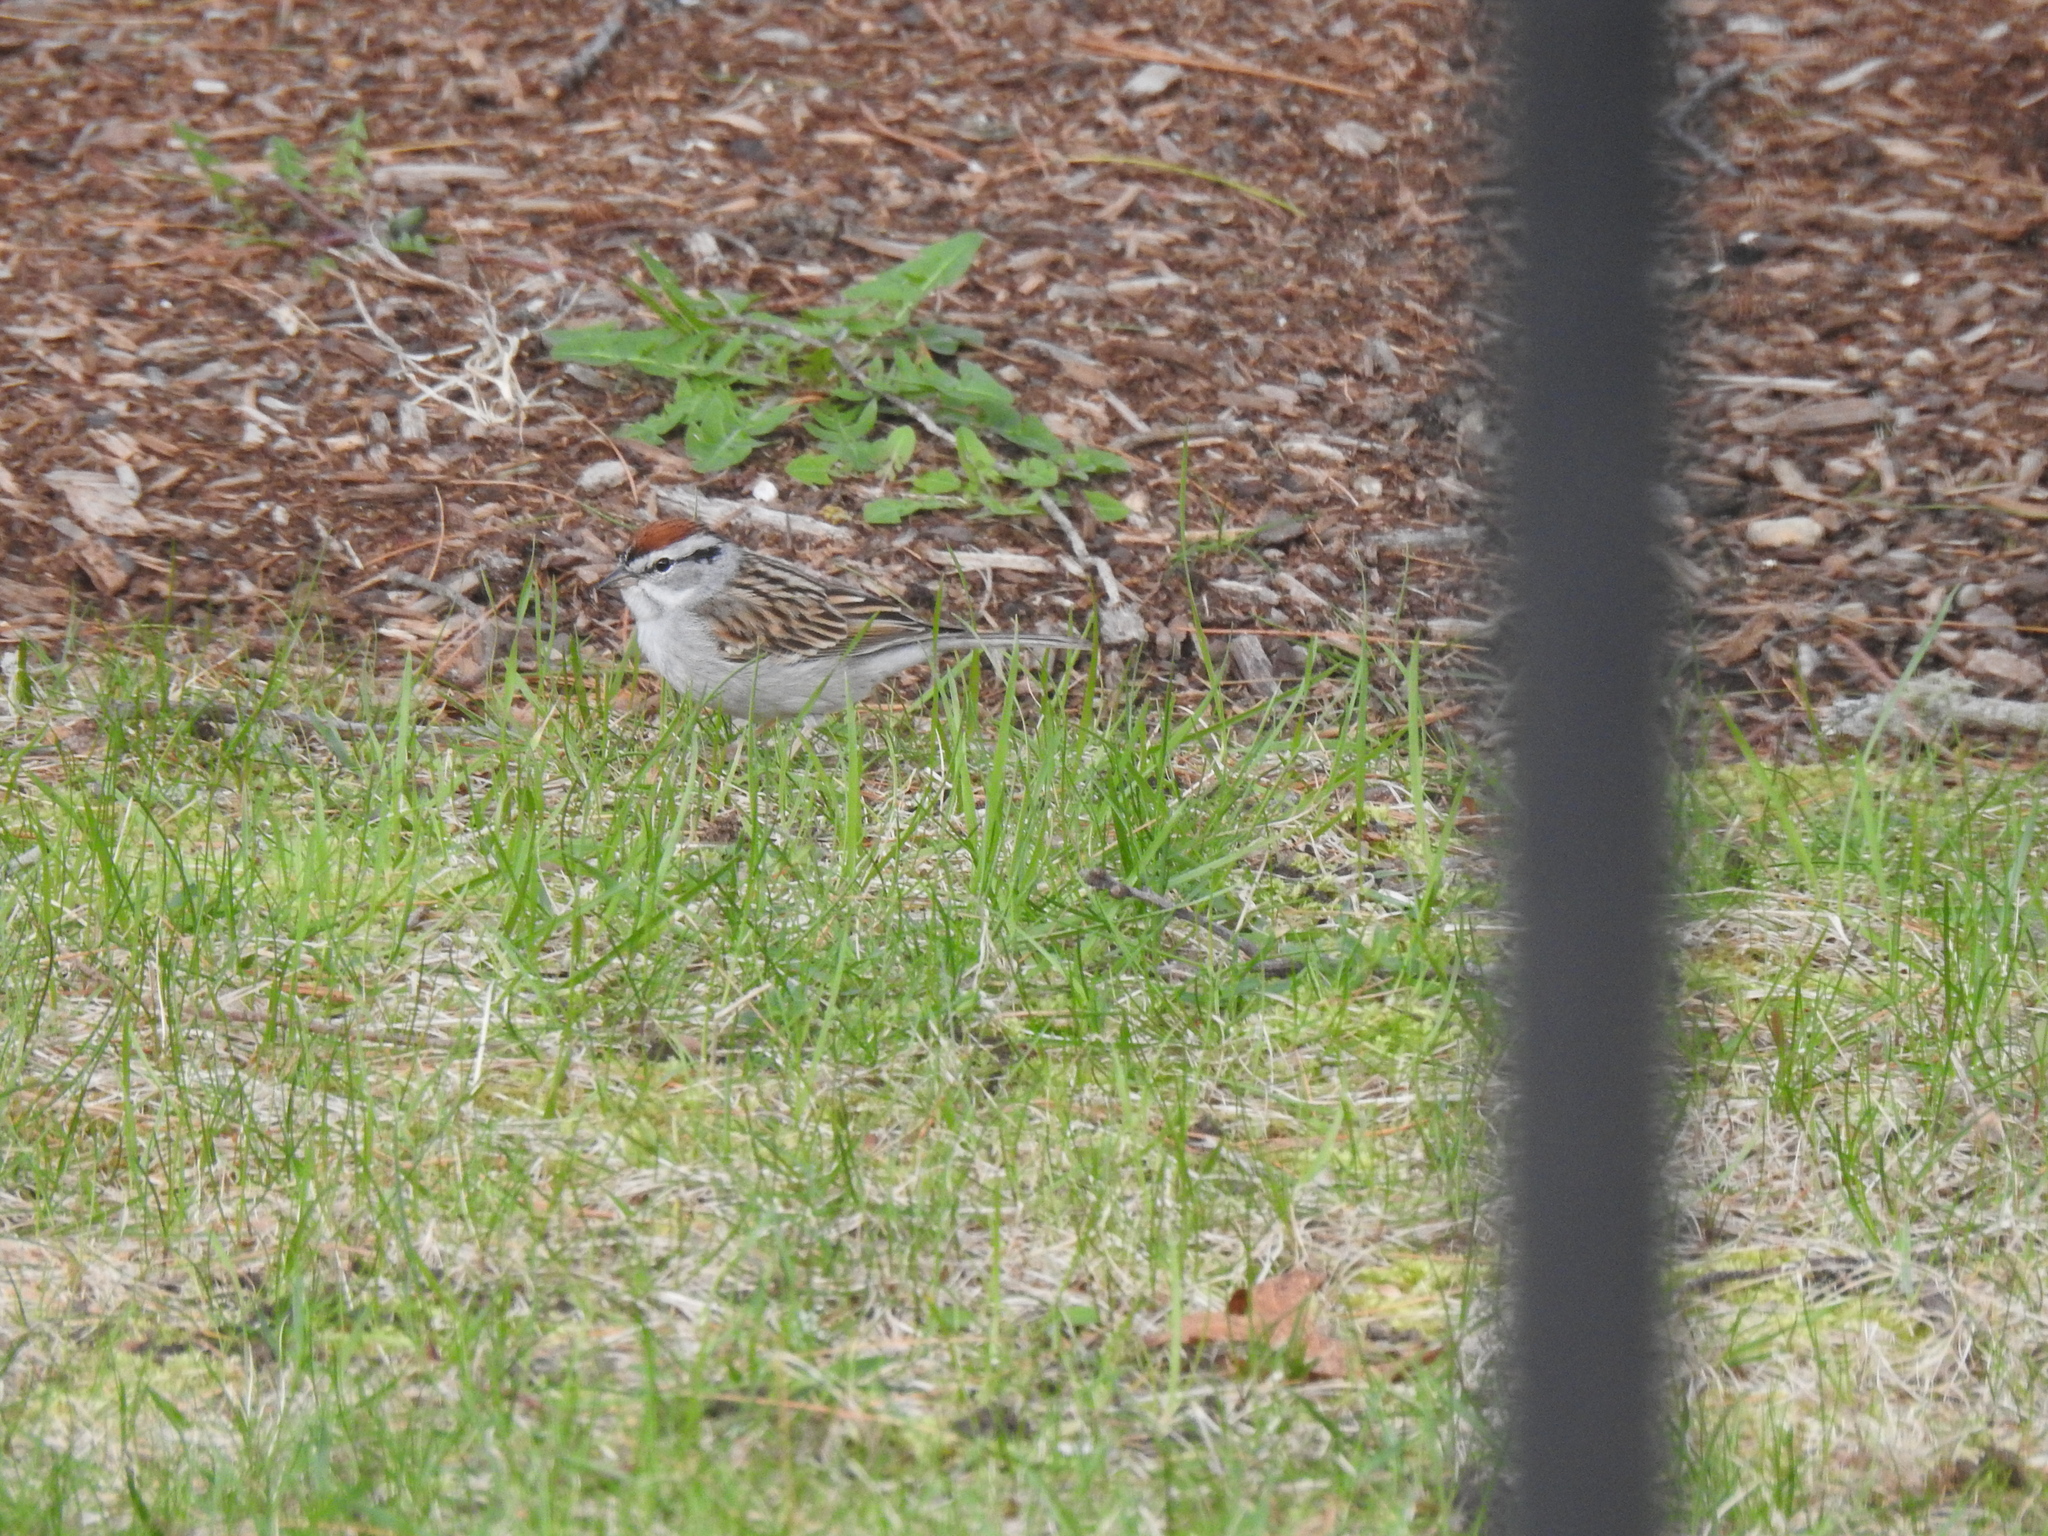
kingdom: Animalia
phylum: Chordata
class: Aves
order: Passeriformes
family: Passerellidae
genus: Spizella
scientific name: Spizella passerina
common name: Chipping sparrow
